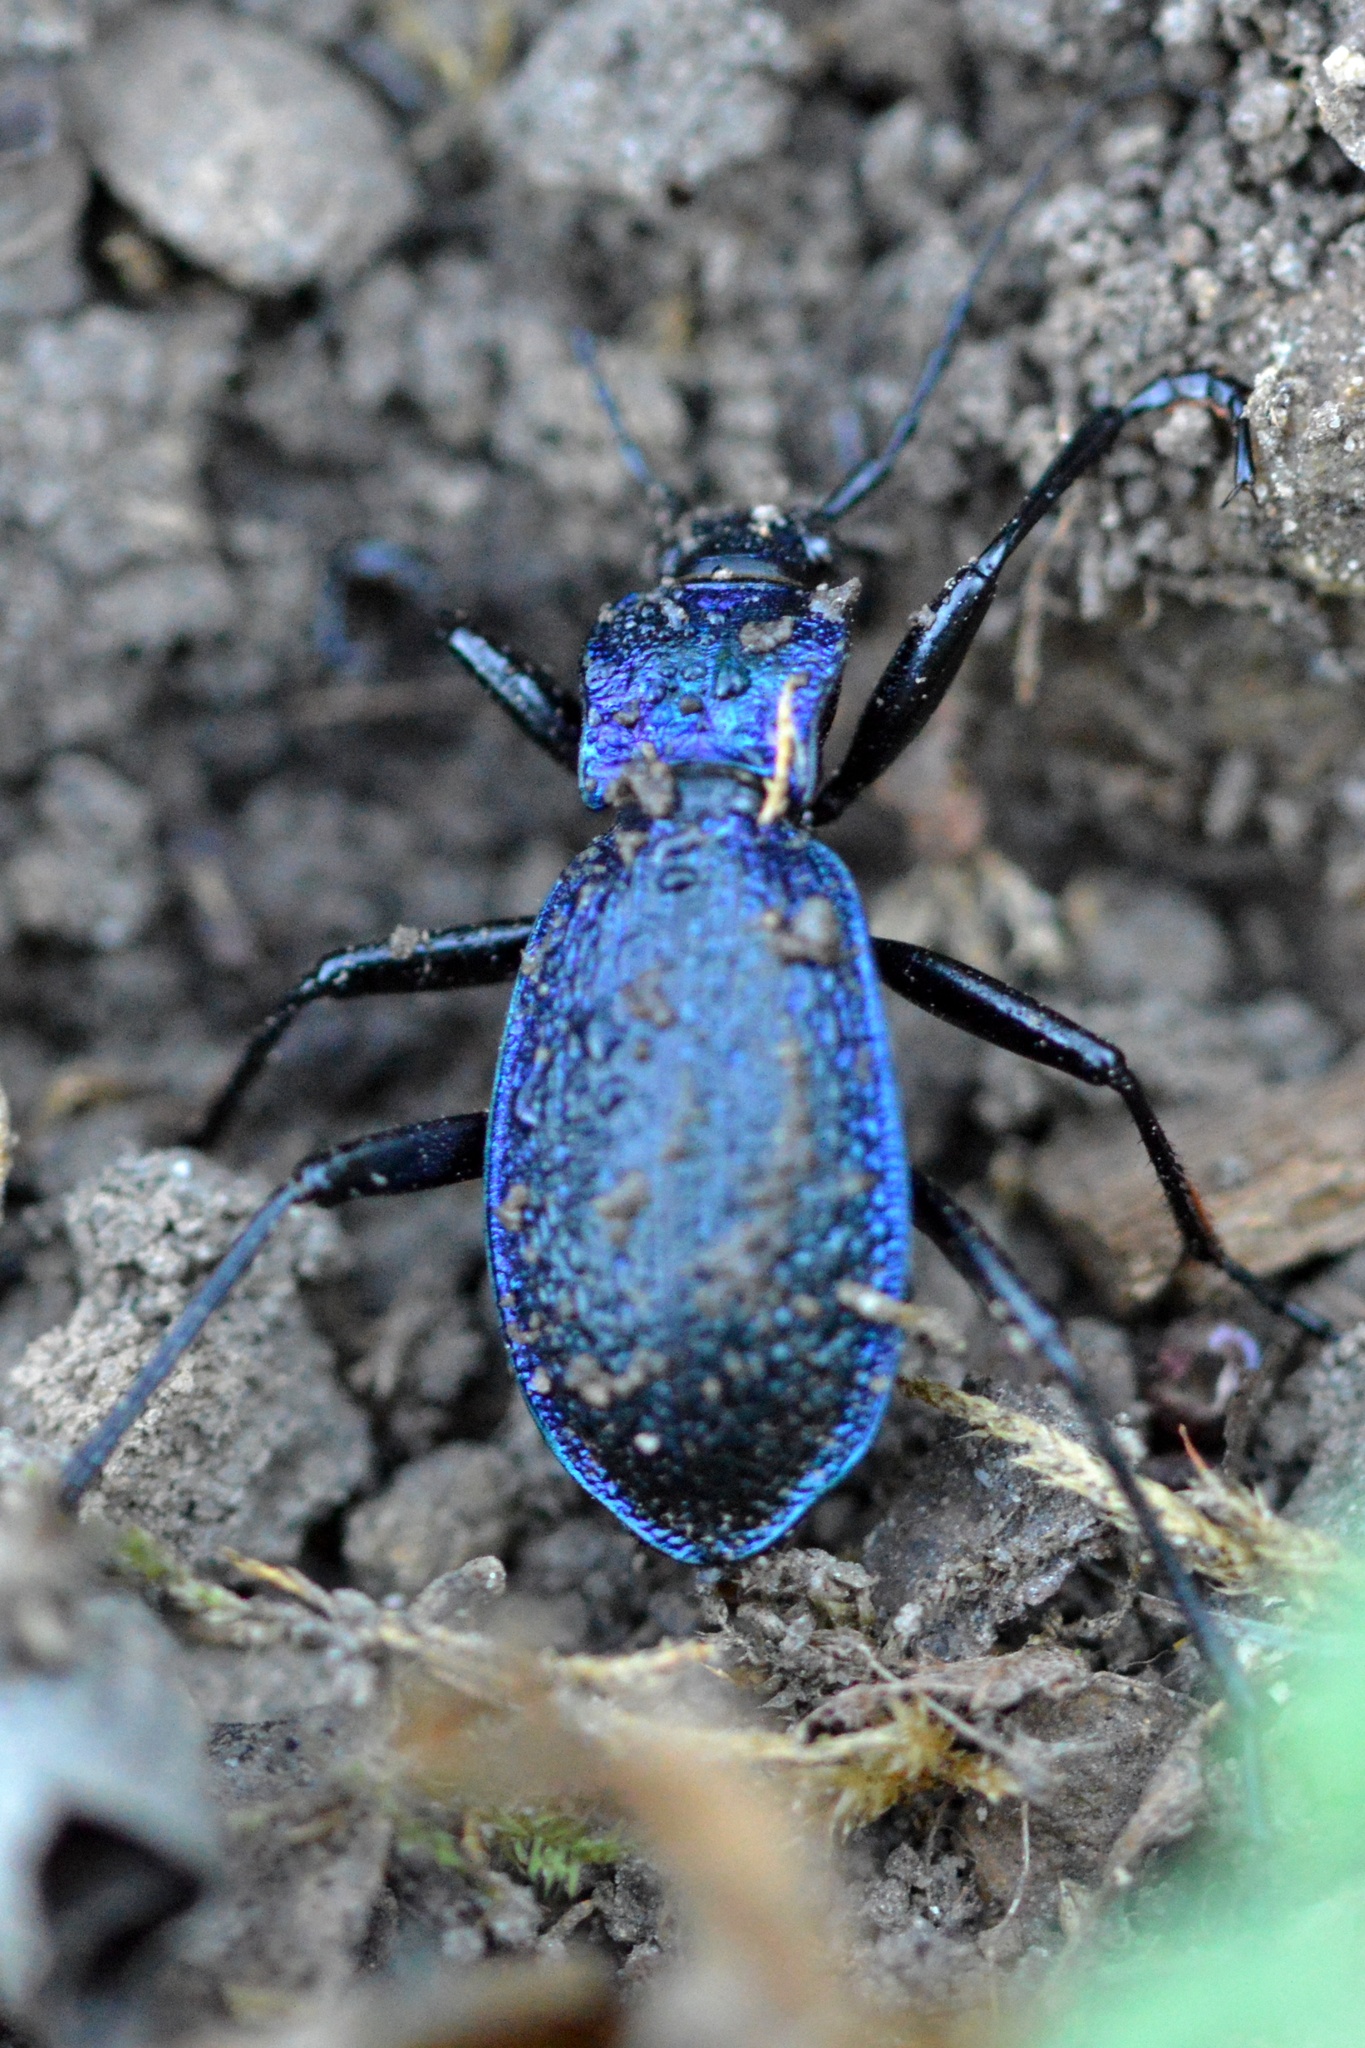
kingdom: Animalia
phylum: Arthropoda
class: Insecta
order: Coleoptera
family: Carabidae
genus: Carabus
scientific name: Carabus intricatus
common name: Blue ground beetle
